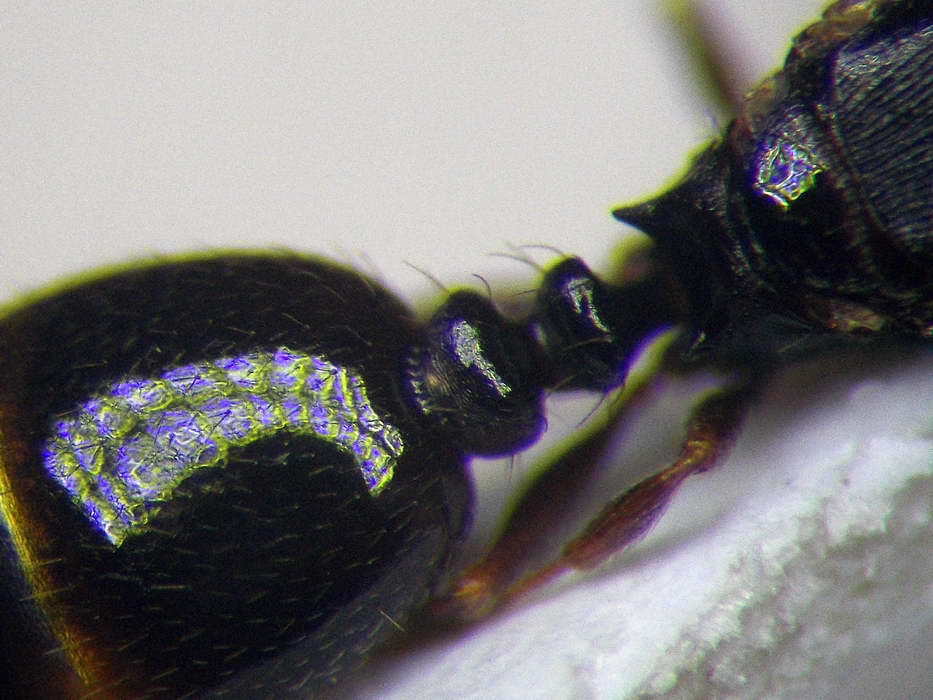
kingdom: Animalia
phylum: Arthropoda
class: Insecta
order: Hymenoptera
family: Formicidae
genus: Tetramorium
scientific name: Tetramorium inerme
